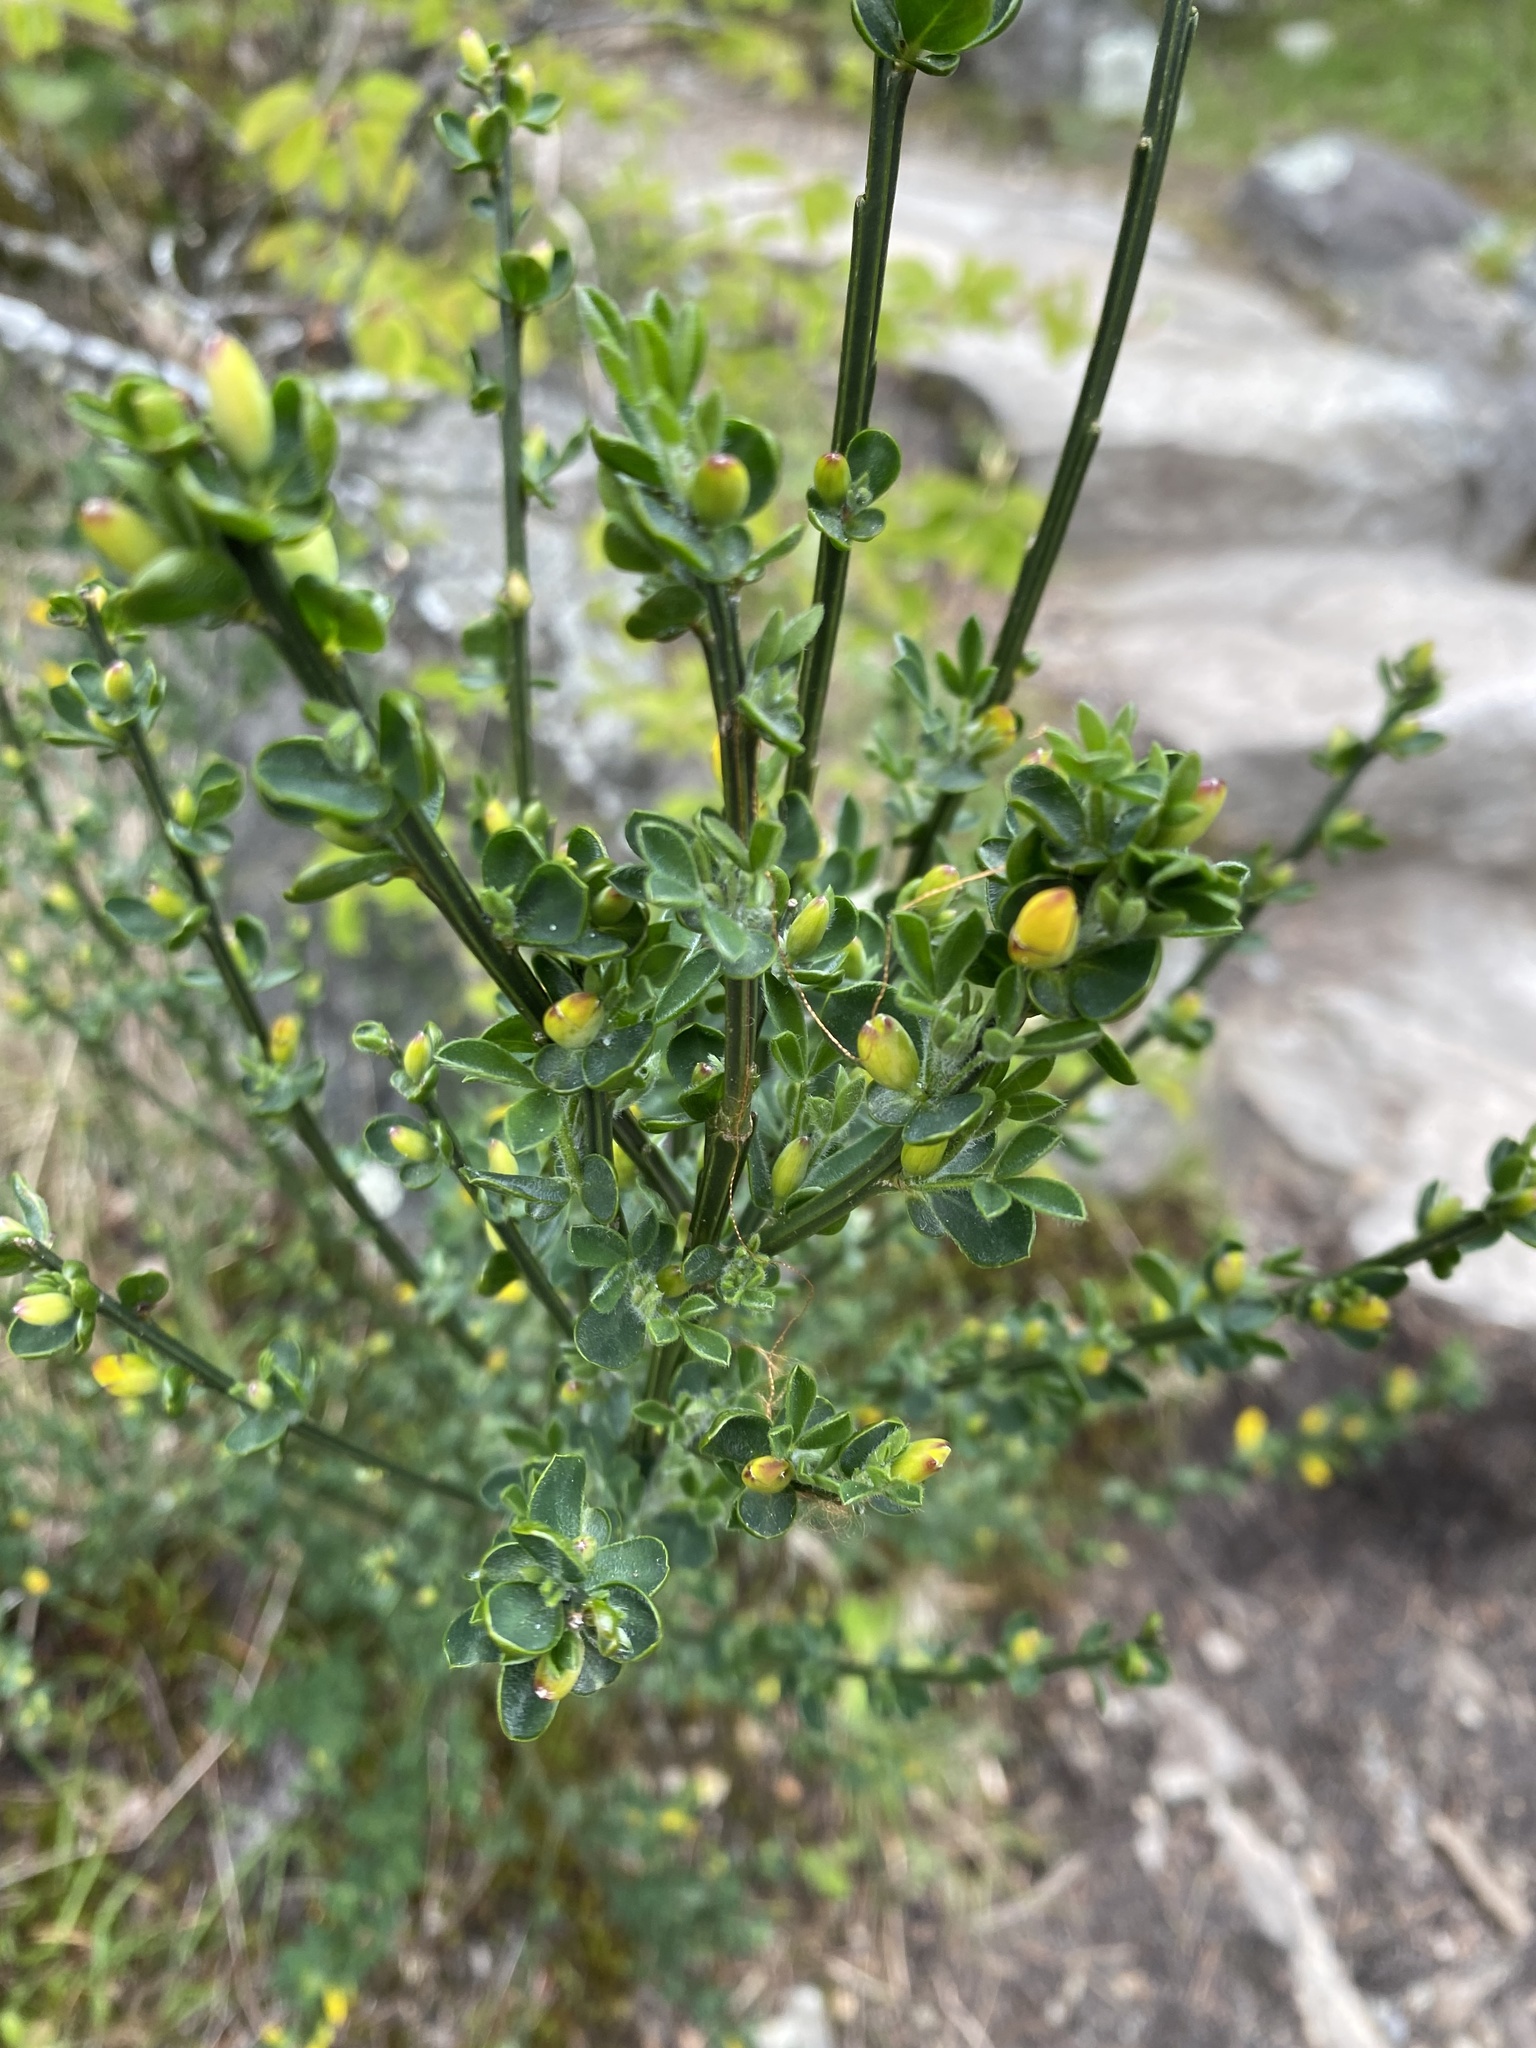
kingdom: Plantae
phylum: Tracheophyta
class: Magnoliopsida
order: Fabales
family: Fabaceae
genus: Cytisus
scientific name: Cytisus scoparius
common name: Scotch broom
